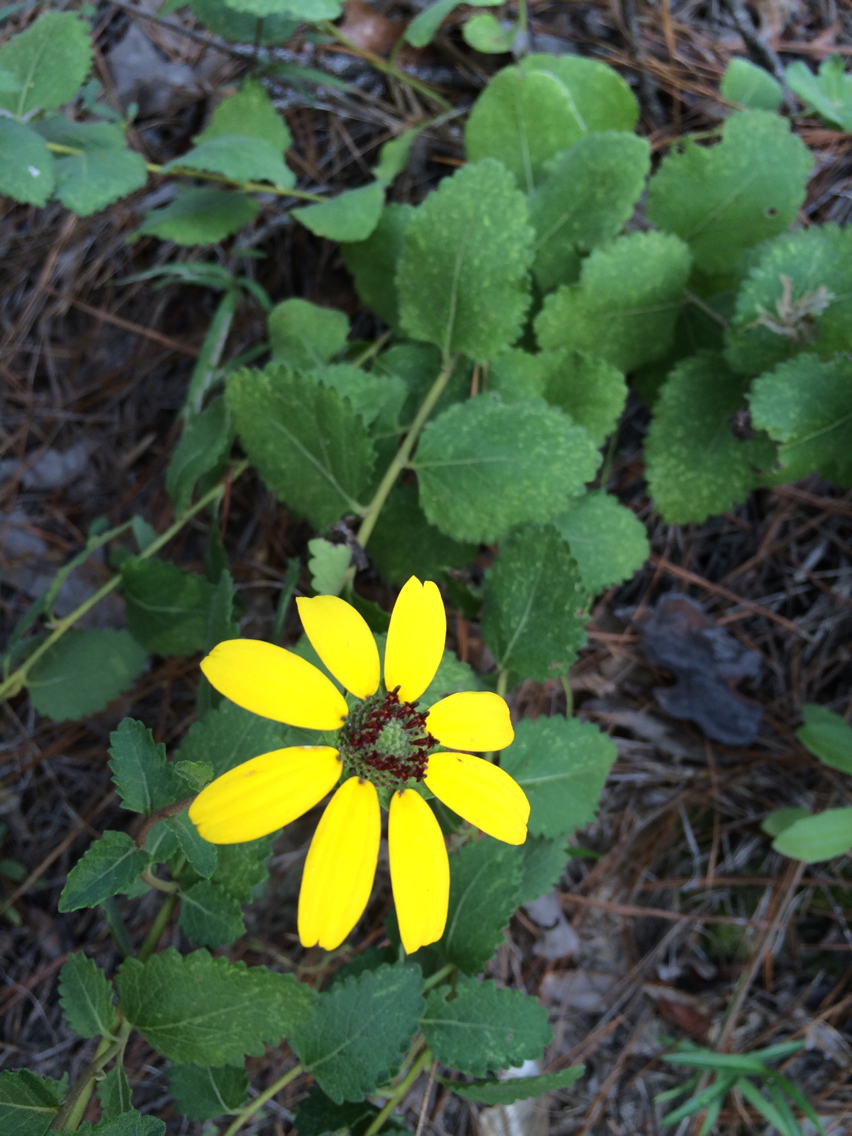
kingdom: Plantae
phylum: Tracheophyta
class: Magnoliopsida
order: Asterales
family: Asteraceae
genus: Berlandiera
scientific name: Berlandiera pumila
